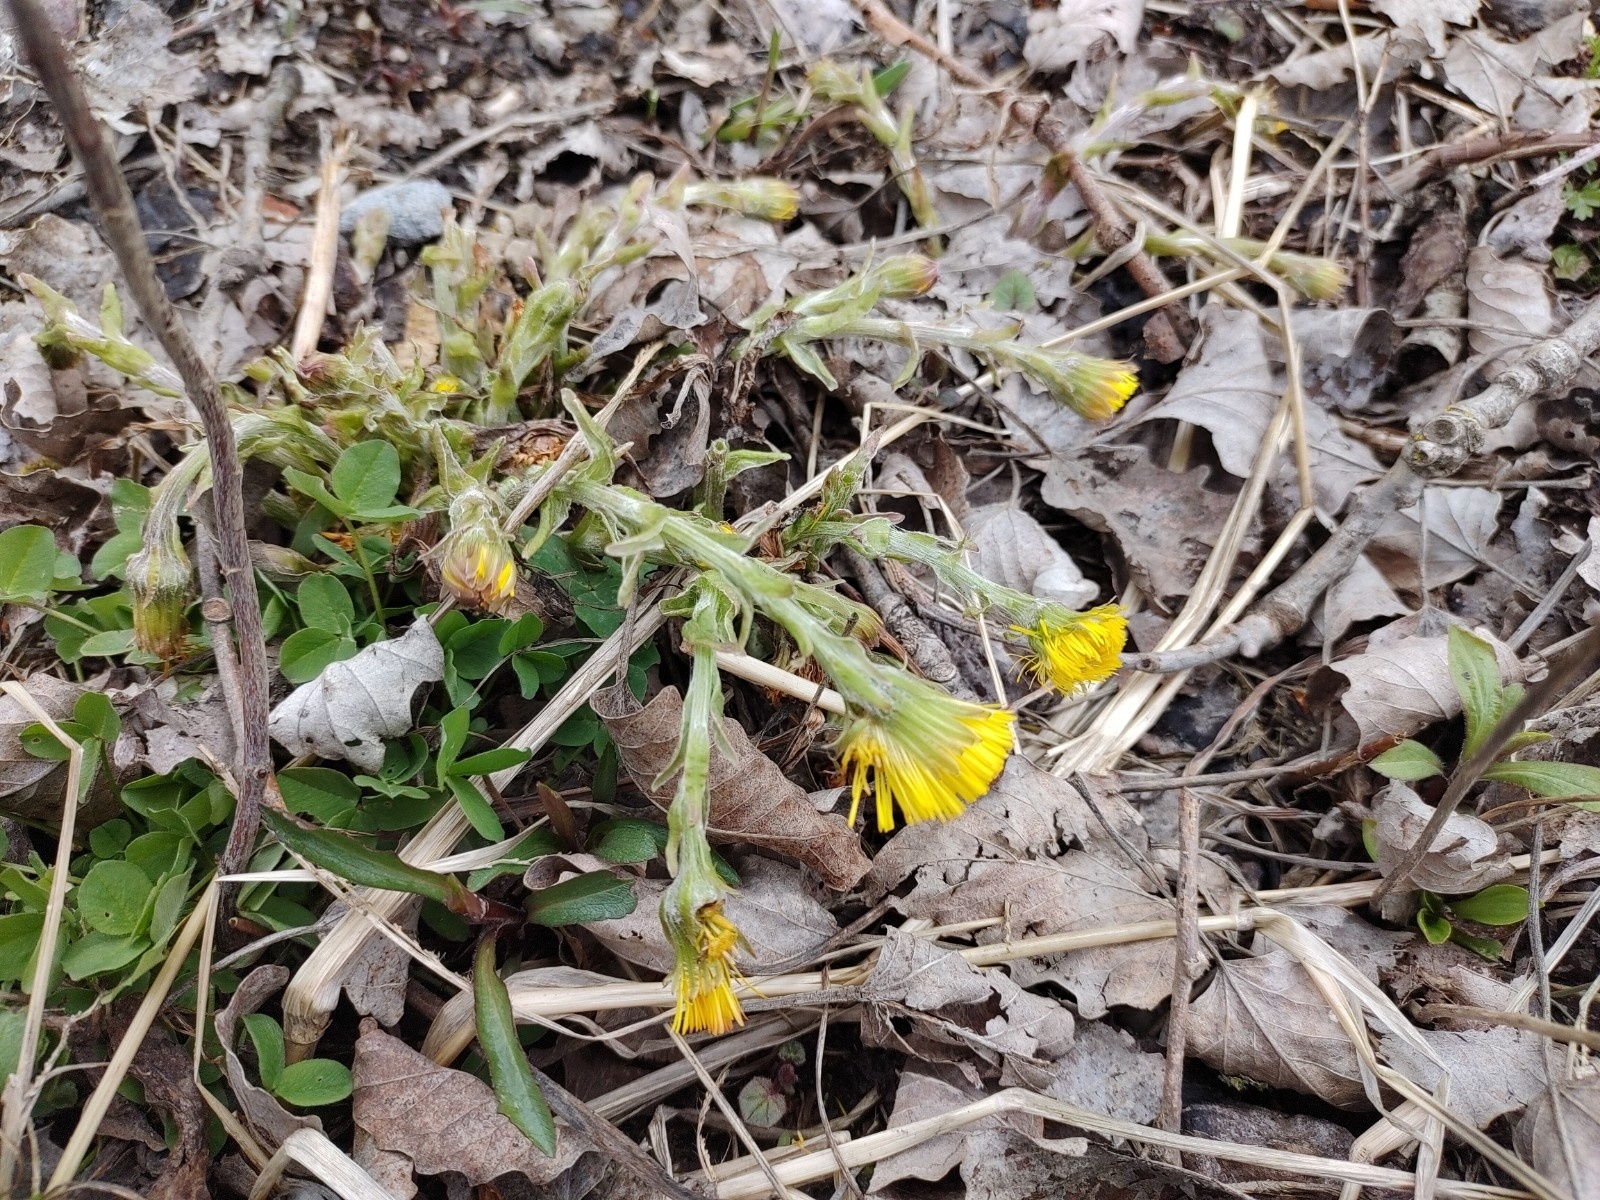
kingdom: Plantae
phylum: Tracheophyta
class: Magnoliopsida
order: Asterales
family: Asteraceae
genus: Tussilago
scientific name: Tussilago farfara
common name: Coltsfoot
